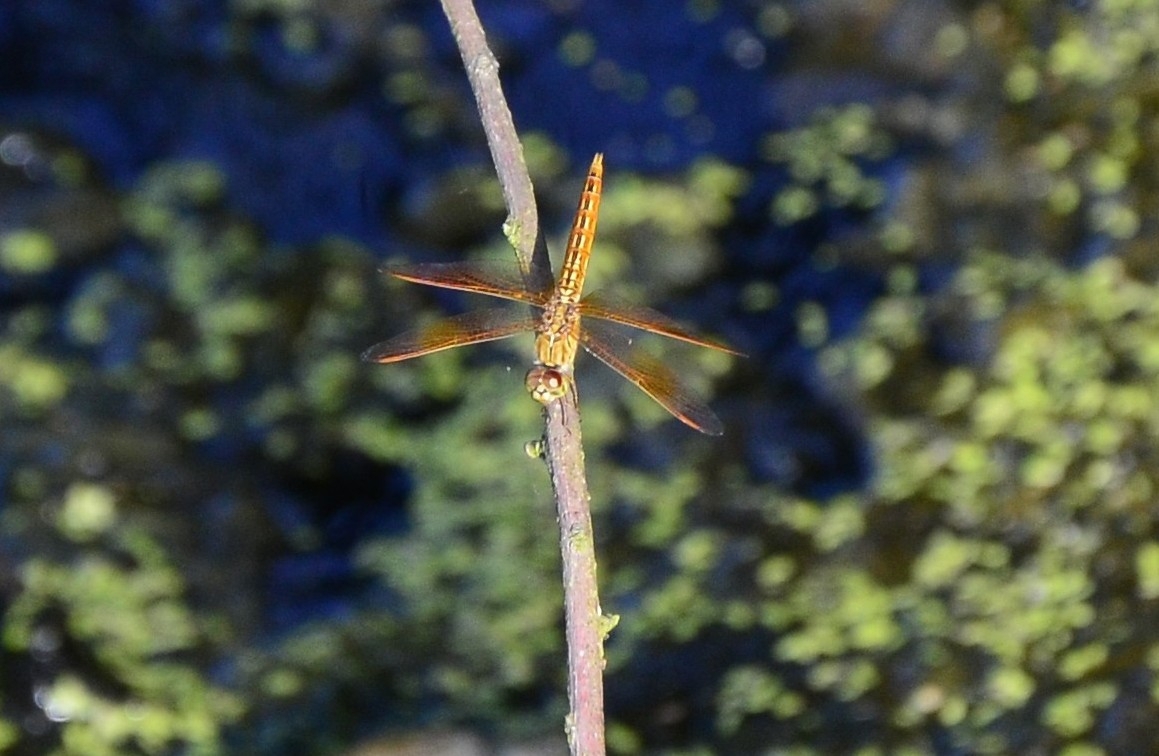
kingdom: Animalia
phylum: Arthropoda
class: Insecta
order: Odonata
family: Libellulidae
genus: Brachythemis
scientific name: Brachythemis contaminata
